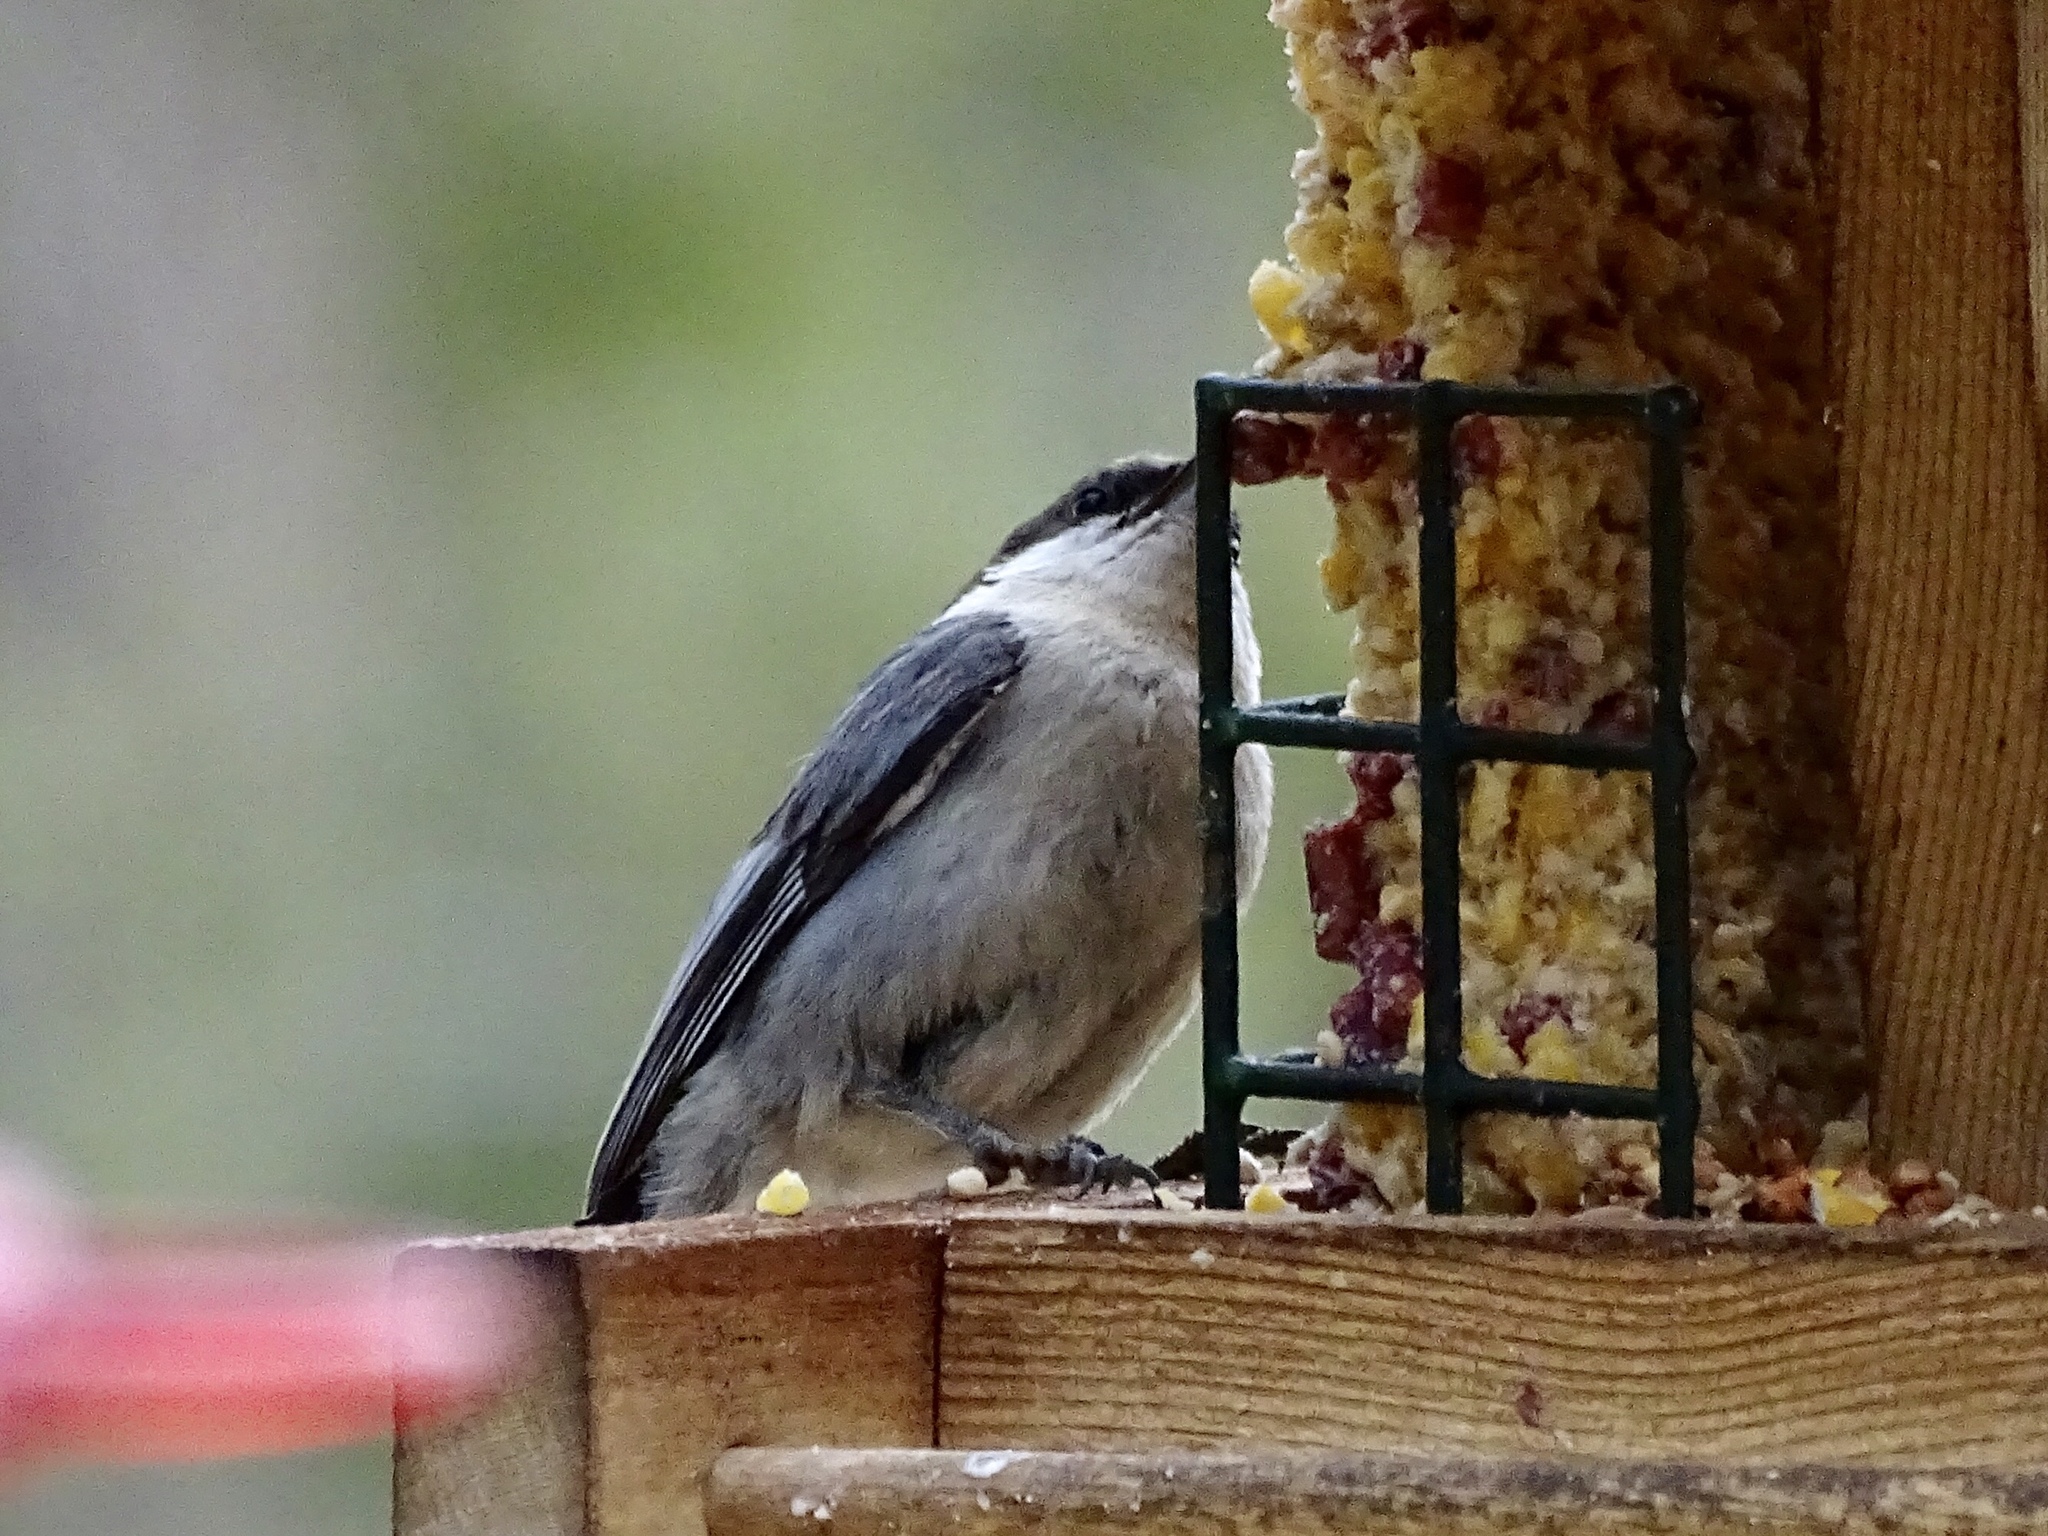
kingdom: Animalia
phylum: Chordata
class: Aves
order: Passeriformes
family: Sittidae
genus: Sitta
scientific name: Sitta pygmaea
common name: Pygmy nuthatch
